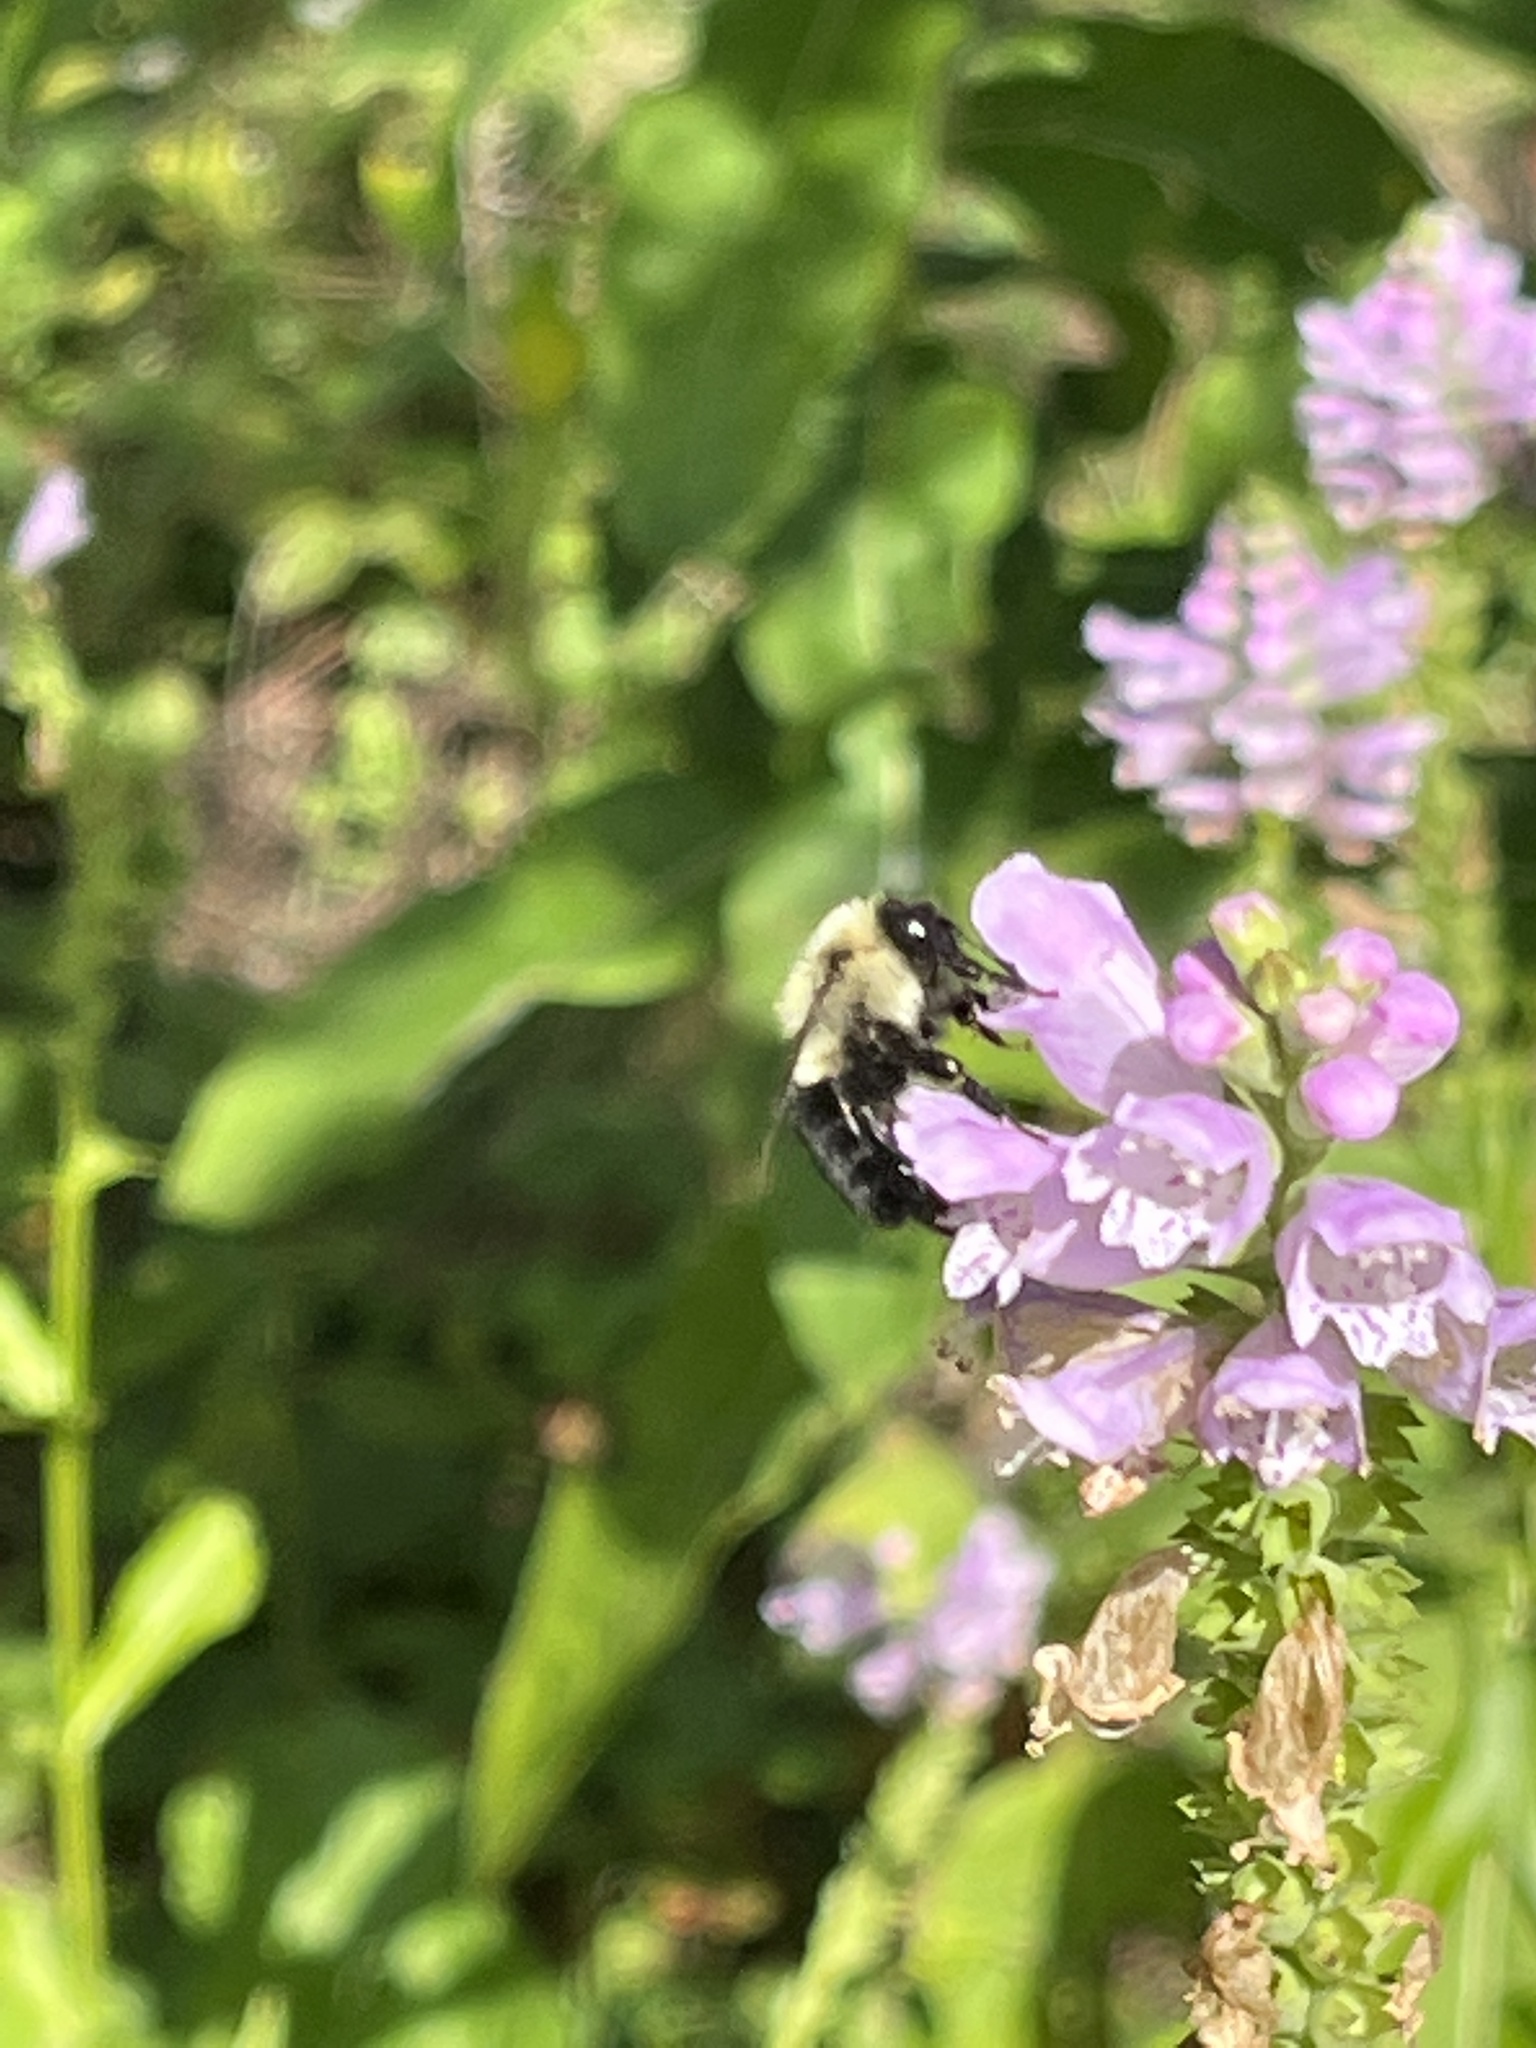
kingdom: Animalia
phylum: Arthropoda
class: Insecta
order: Hymenoptera
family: Apidae
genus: Bombus
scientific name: Bombus impatiens
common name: Common eastern bumble bee
